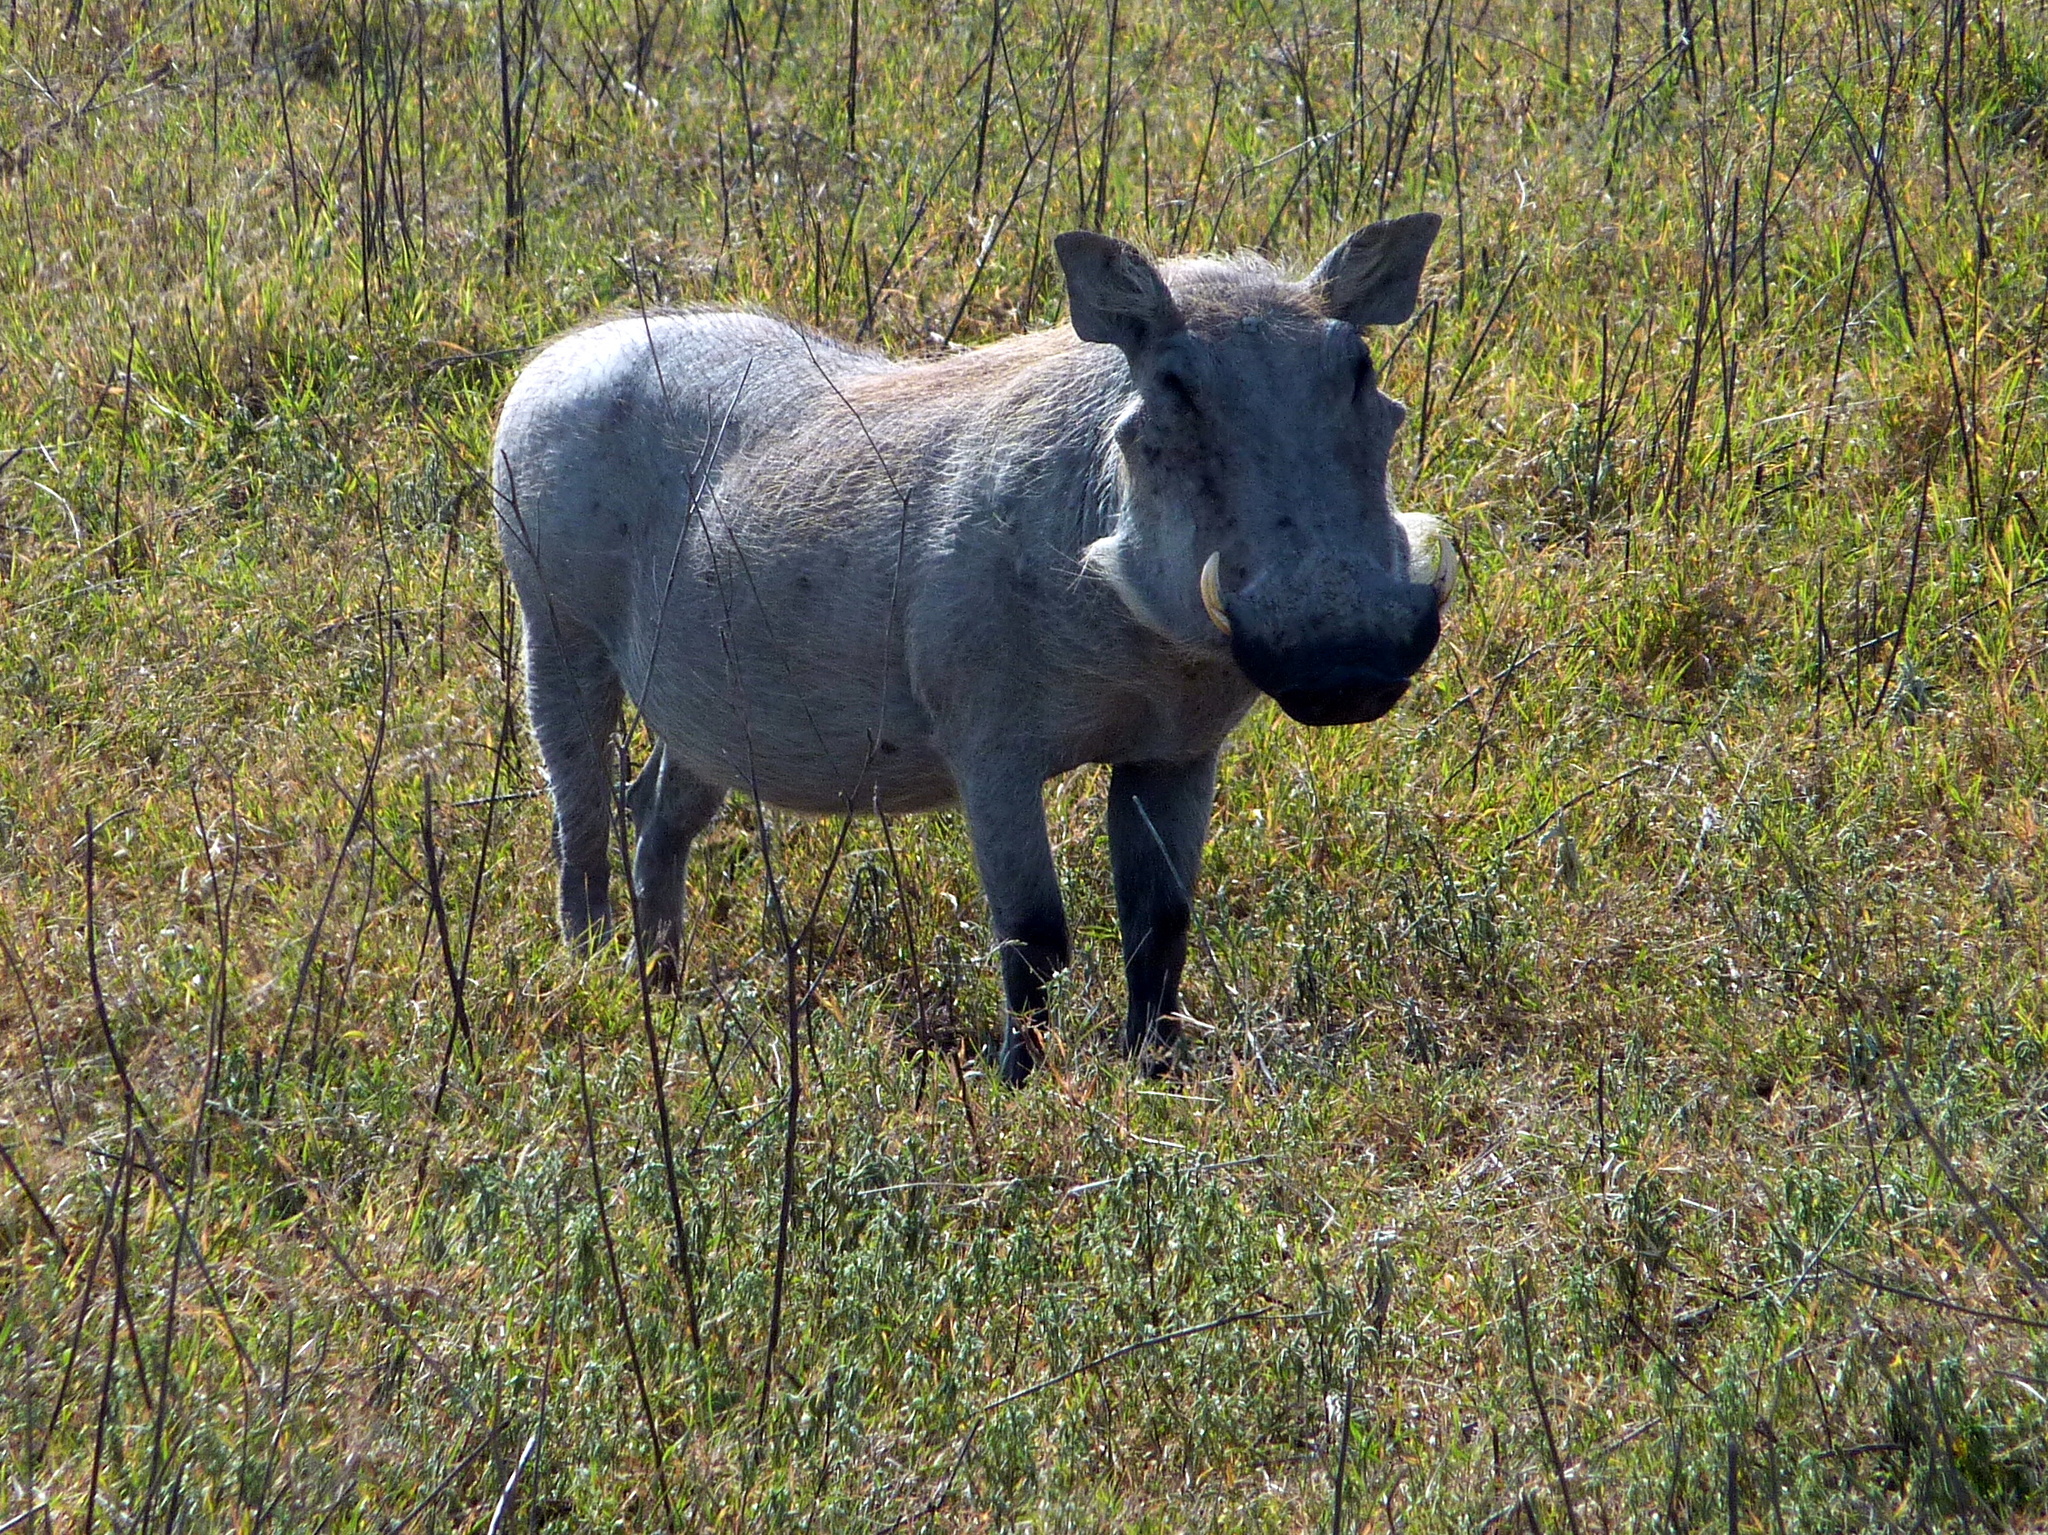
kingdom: Animalia
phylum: Chordata
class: Mammalia
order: Artiodactyla
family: Suidae
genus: Phacochoerus
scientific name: Phacochoerus africanus
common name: Common warthog
